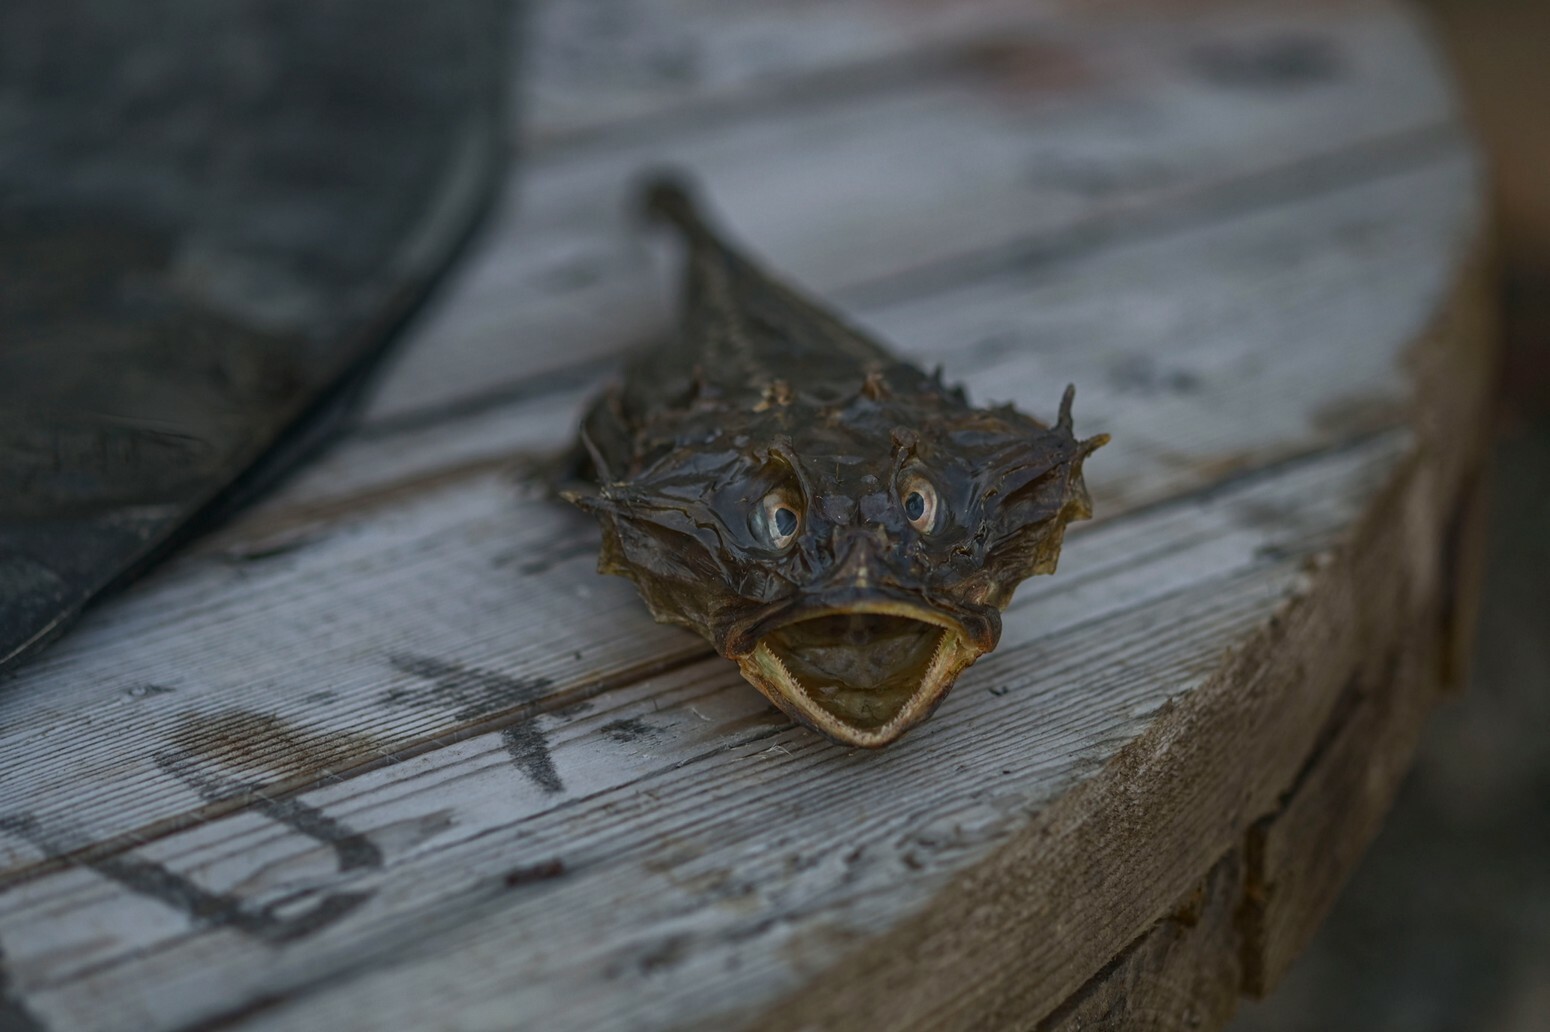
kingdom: Animalia
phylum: Chordata
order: Scorpaeniformes
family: Cottidae
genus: Myoxocephalus
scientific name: Myoxocephalus scorpius
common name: Shorthorn sculpin
